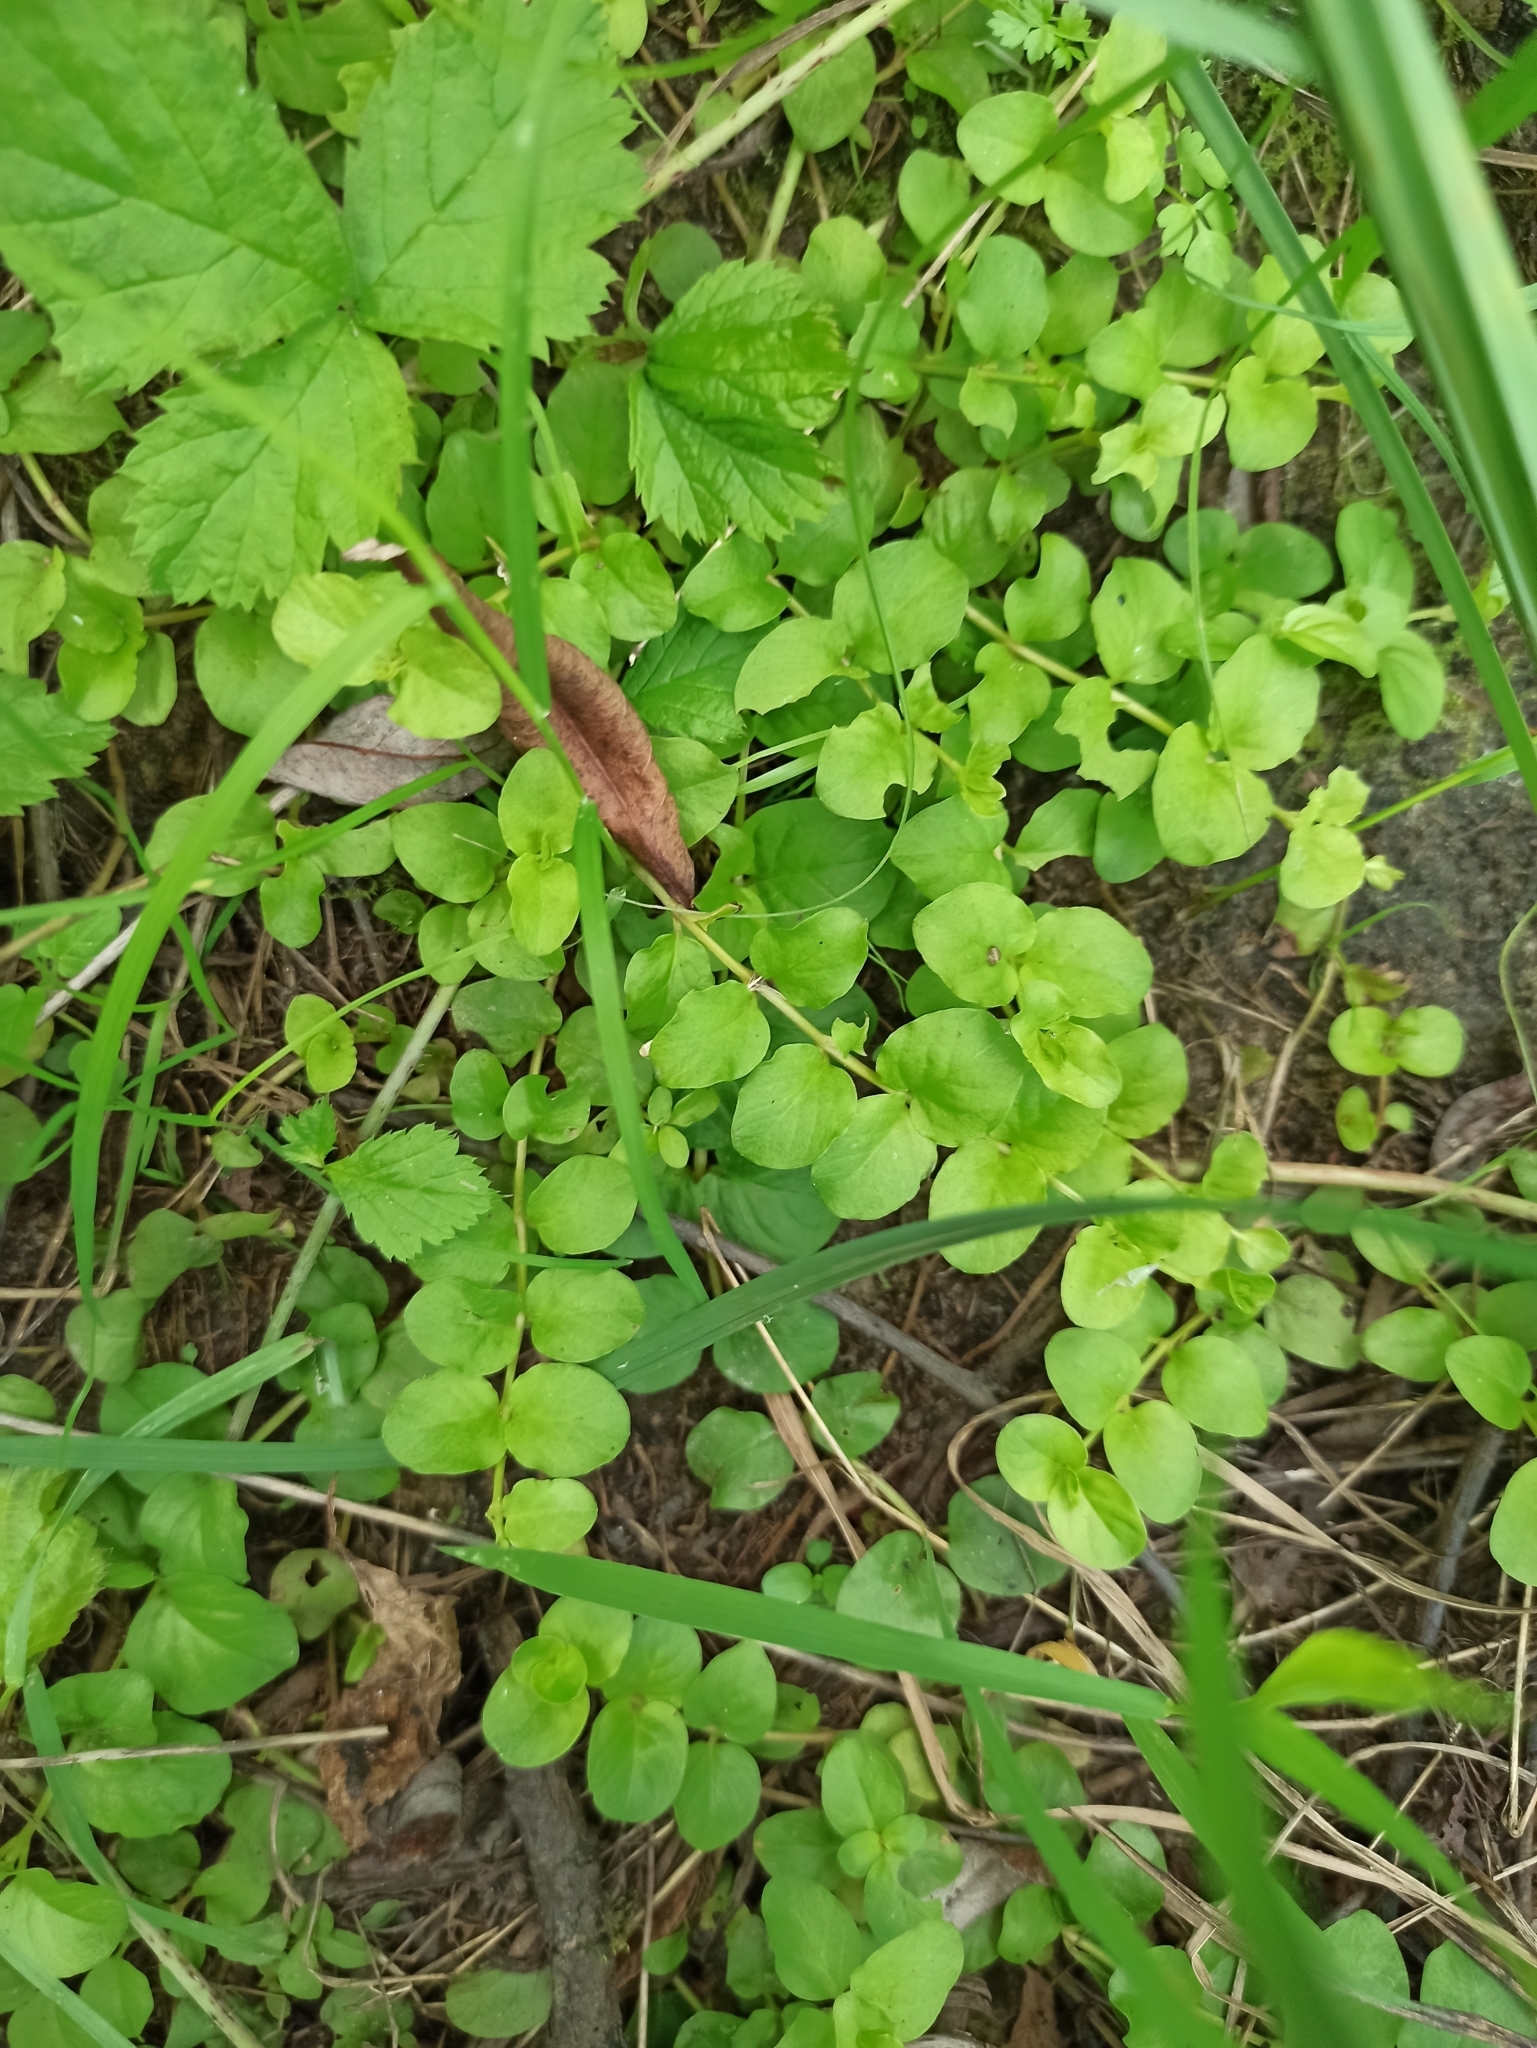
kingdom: Plantae
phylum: Tracheophyta
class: Magnoliopsida
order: Ericales
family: Primulaceae
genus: Lysimachia
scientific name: Lysimachia nummularia
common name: Moneywort
